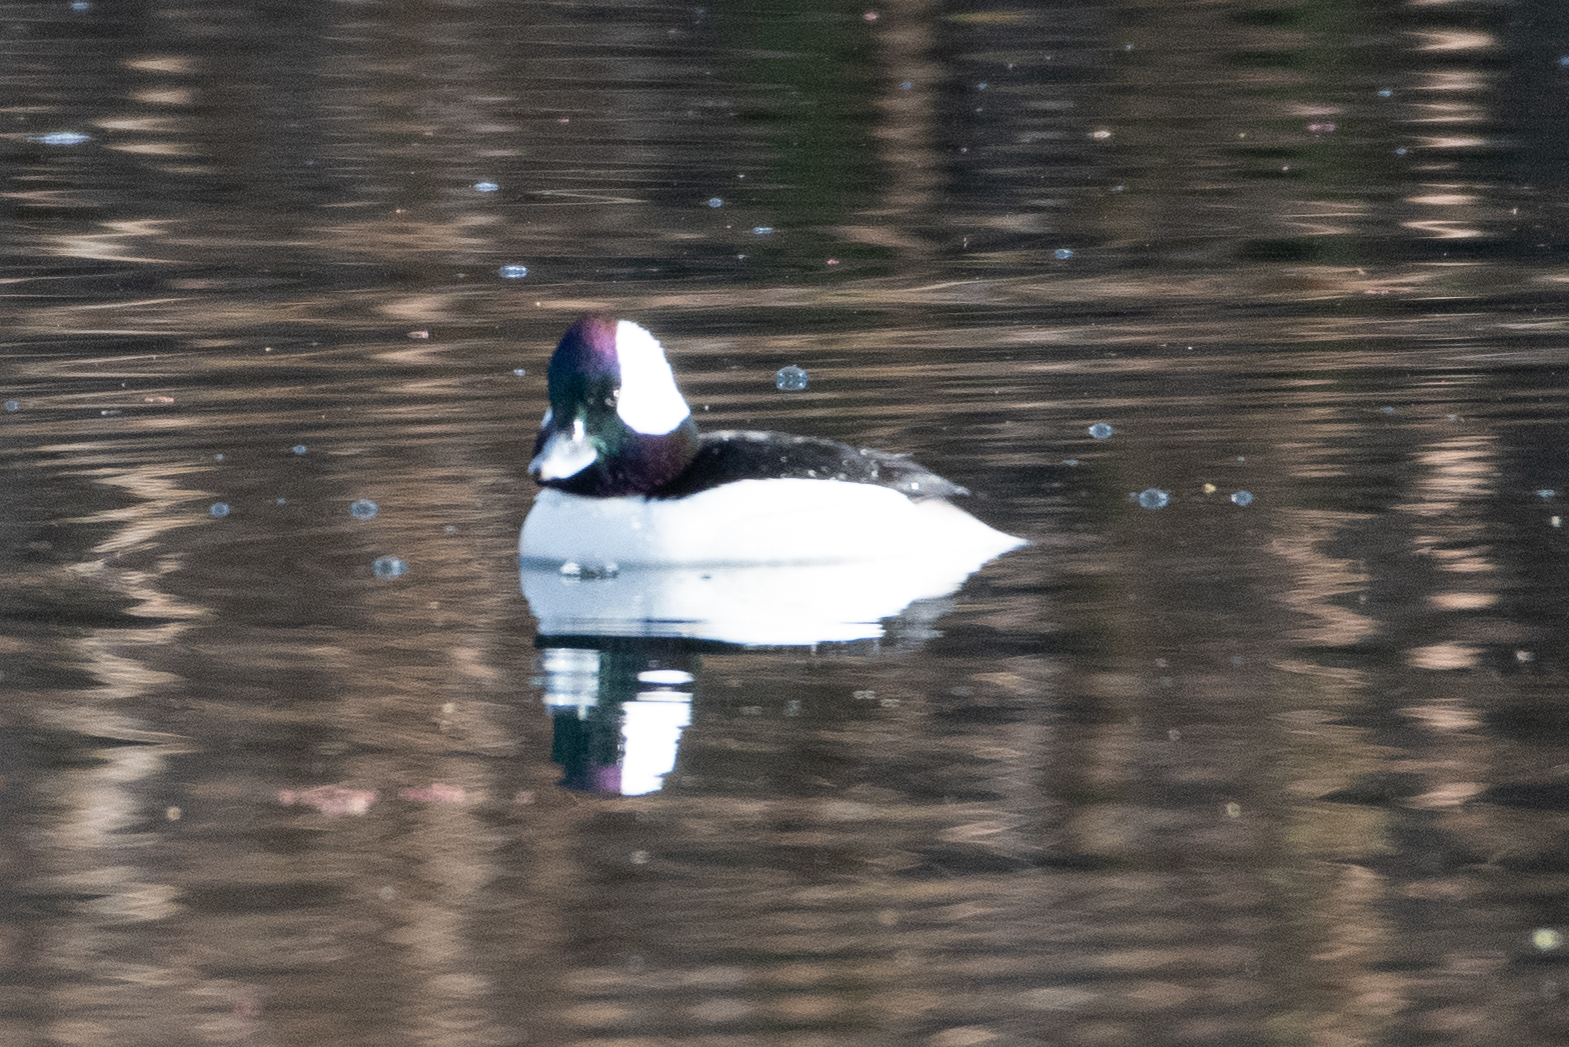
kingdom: Animalia
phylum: Chordata
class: Aves
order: Anseriformes
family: Anatidae
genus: Bucephala
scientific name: Bucephala albeola
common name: Bufflehead
